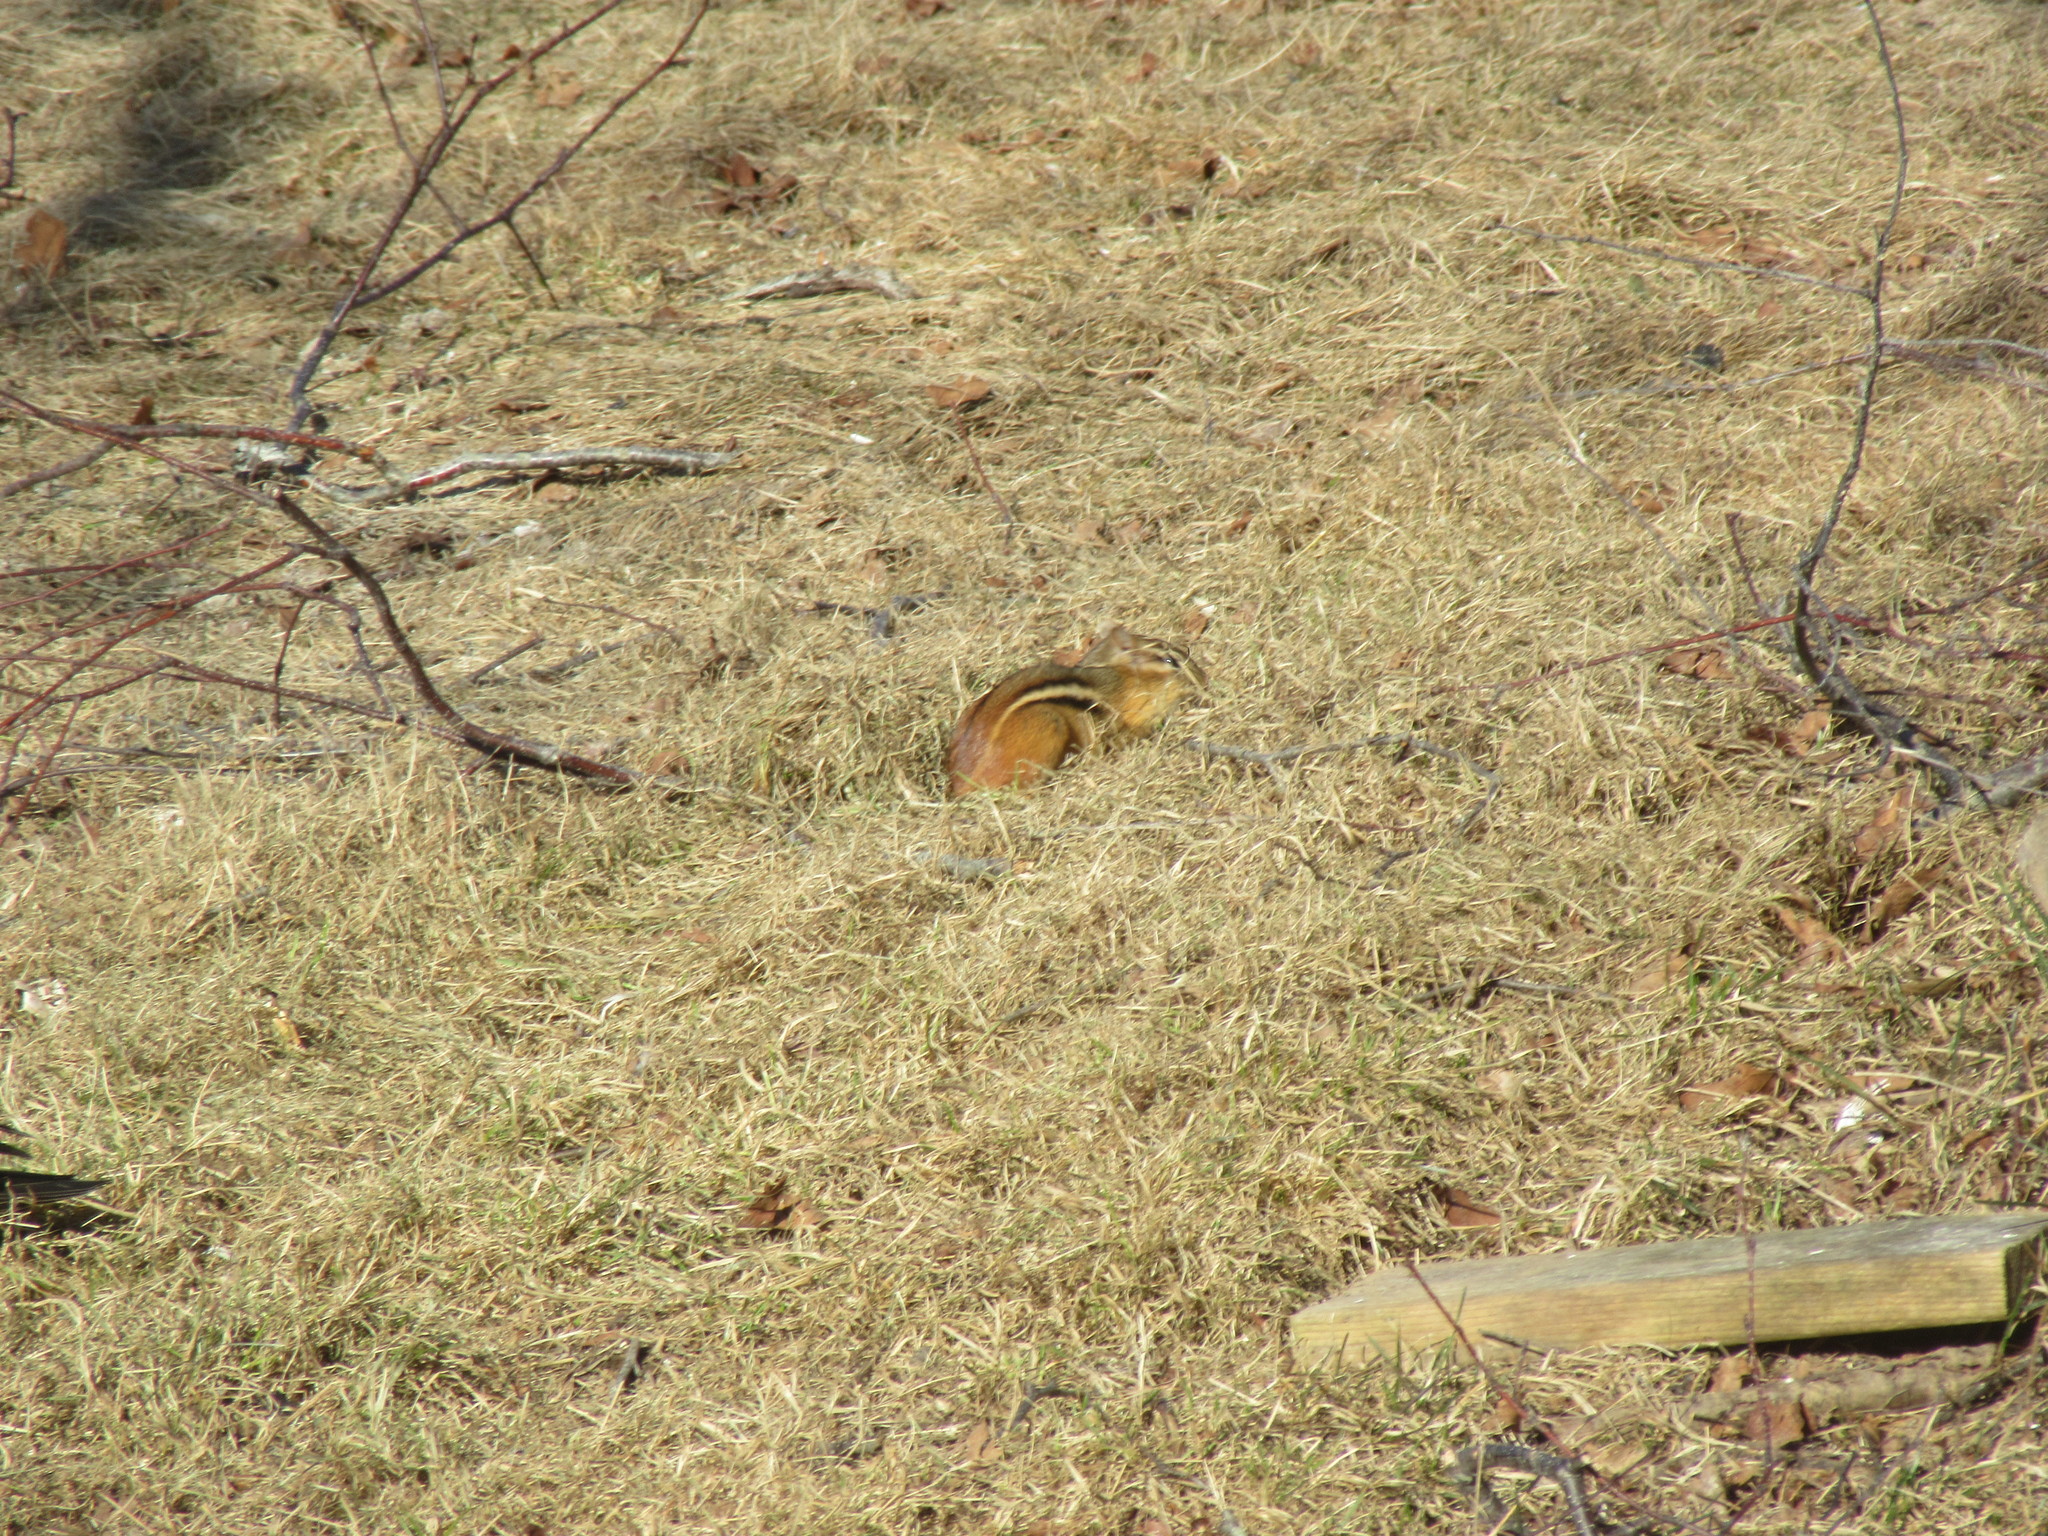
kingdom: Animalia
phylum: Chordata
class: Mammalia
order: Rodentia
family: Sciuridae
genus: Tamias
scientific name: Tamias striatus
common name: Eastern chipmunk
